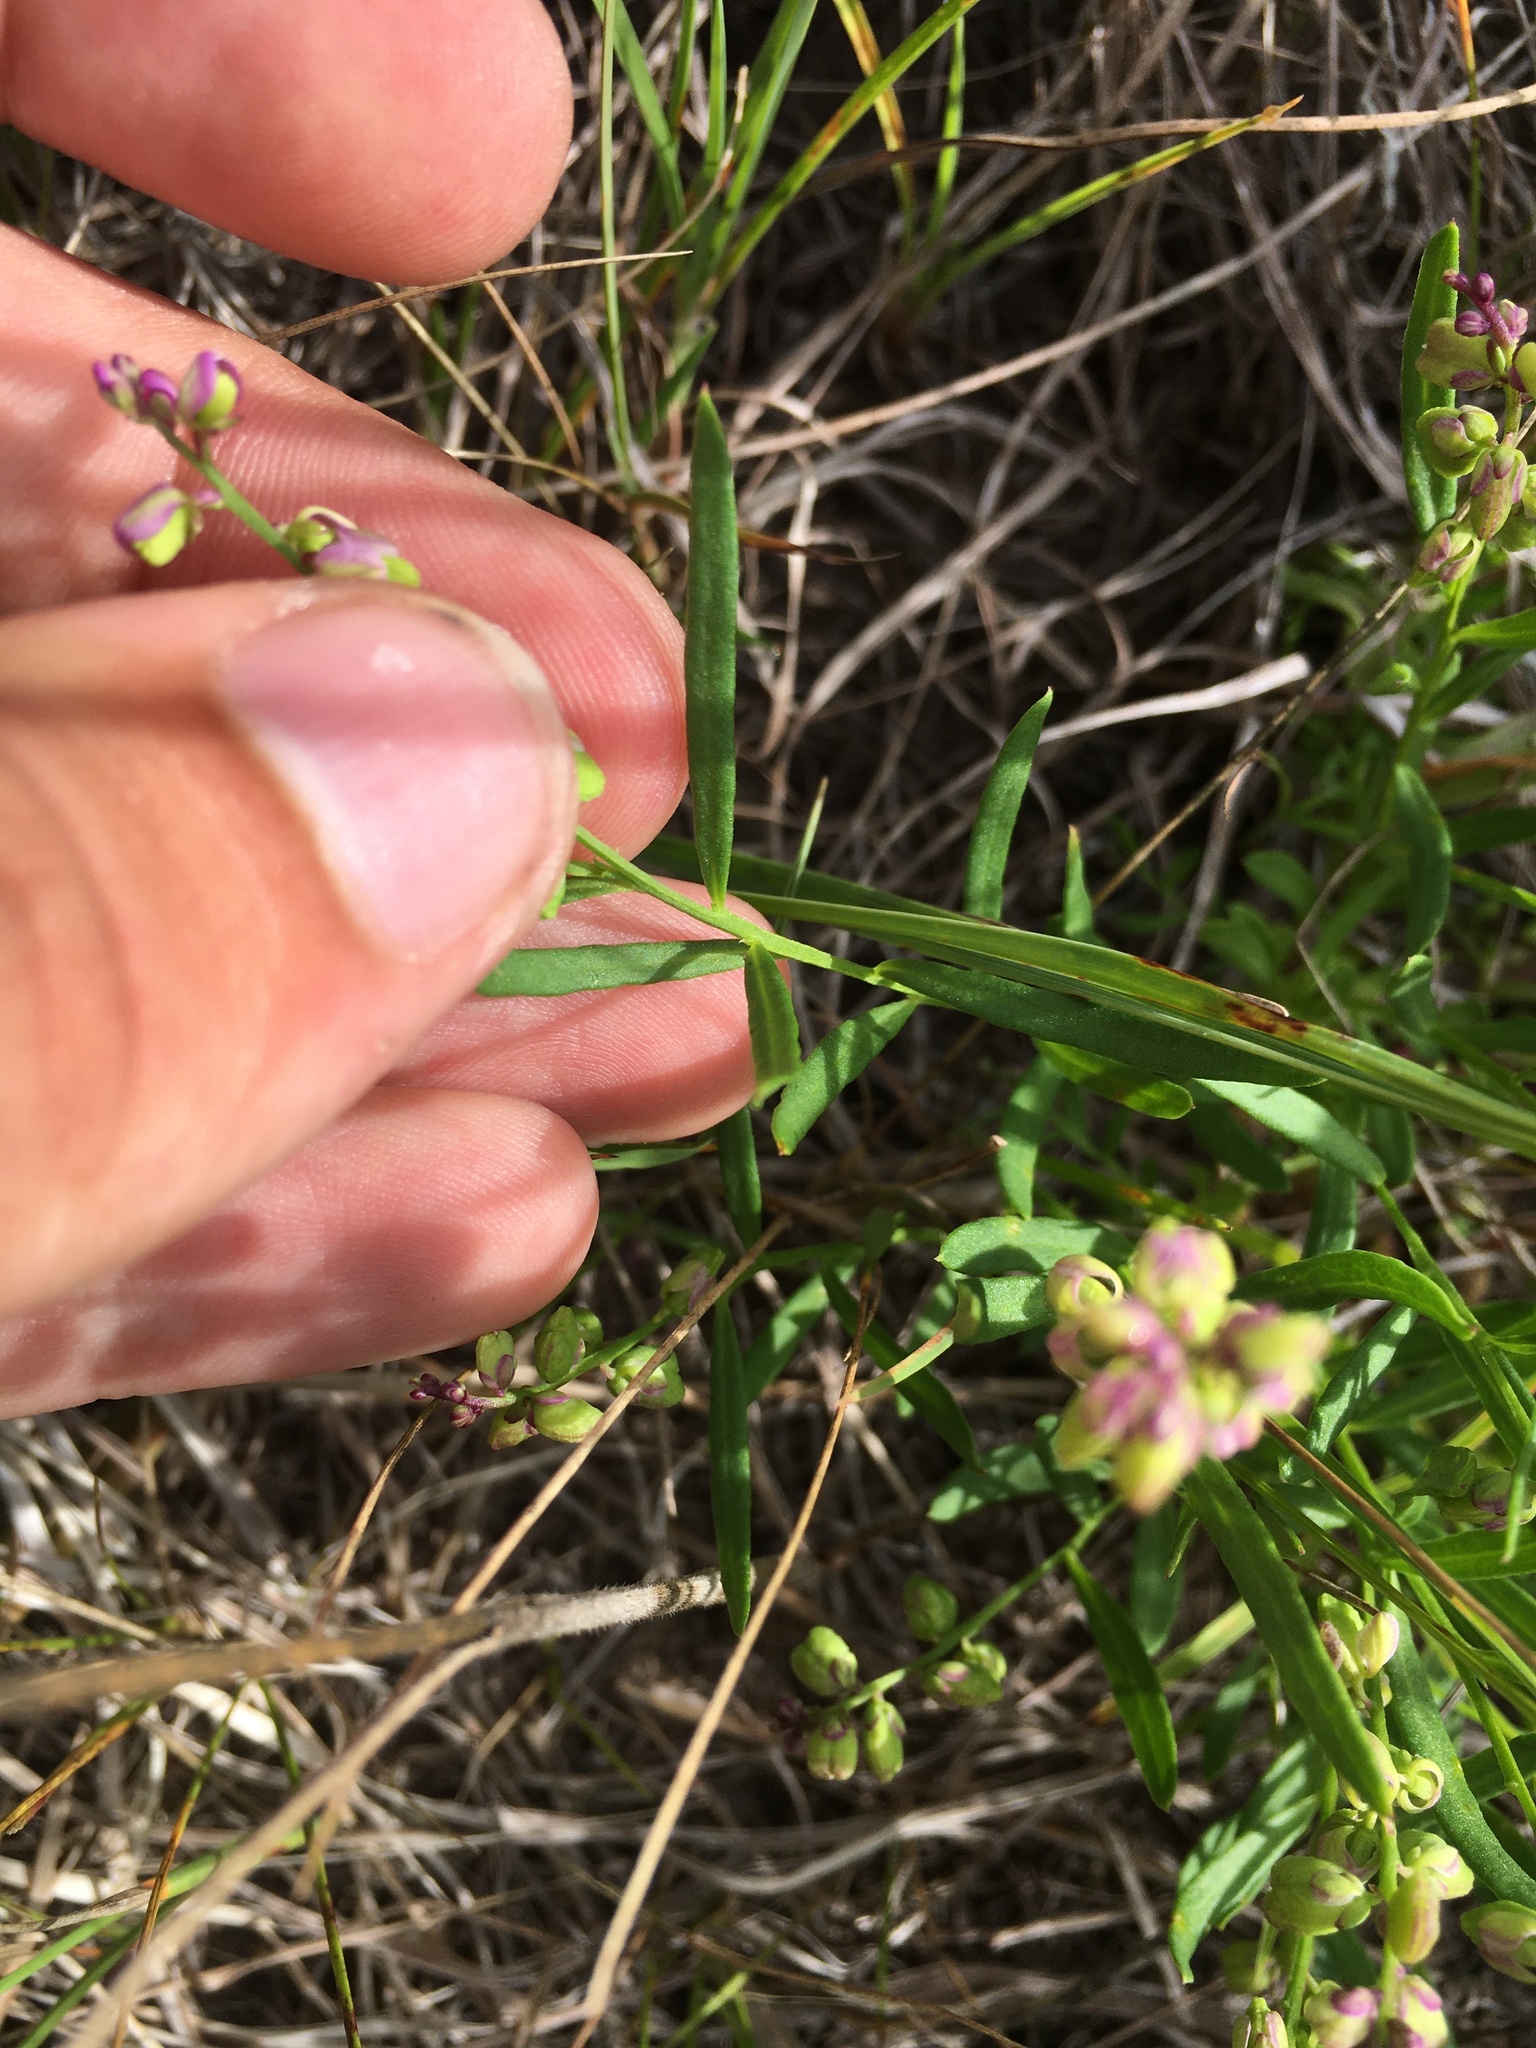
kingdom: Plantae
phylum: Tracheophyta
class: Magnoliopsida
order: Fabales
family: Polygalaceae
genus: Polygala
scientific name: Polygala polygama
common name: Bitter milkwort
